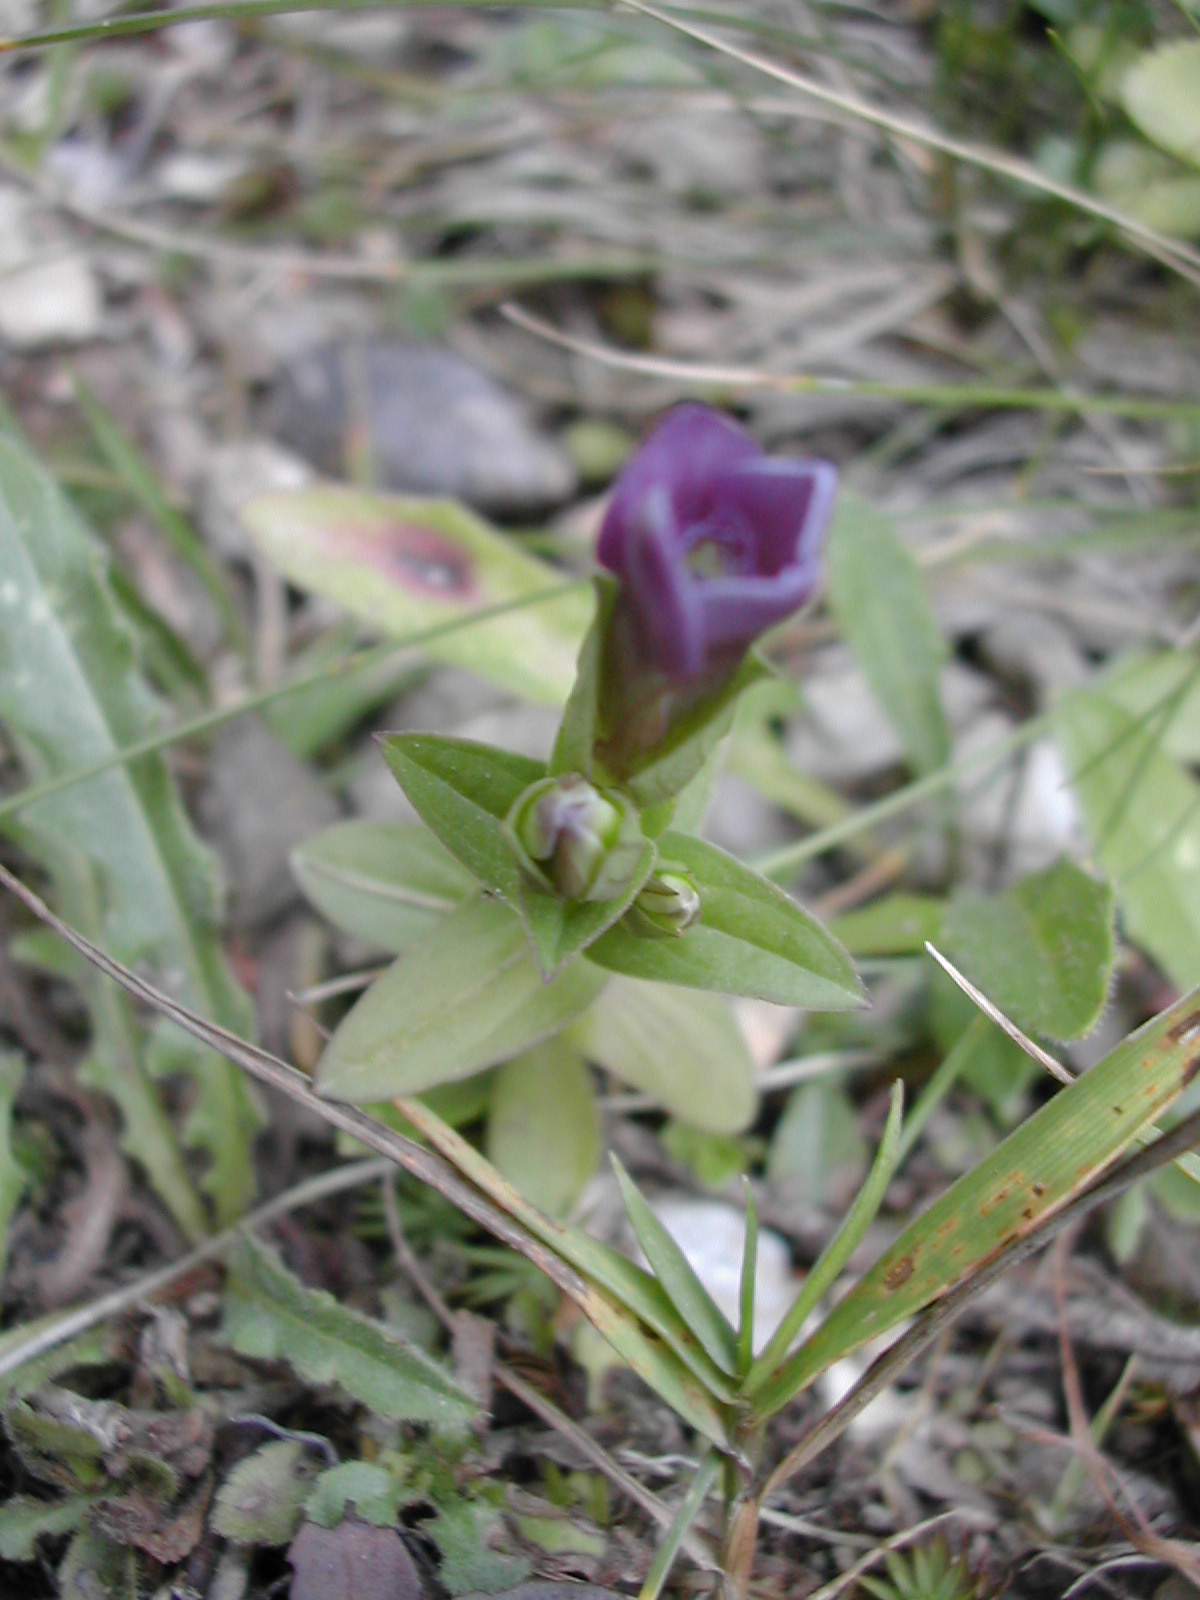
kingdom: Plantae
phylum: Tracheophyta
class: Magnoliopsida
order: Gentianales
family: Gentianaceae
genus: Gentianella
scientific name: Gentianella campestris
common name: Field gentian
